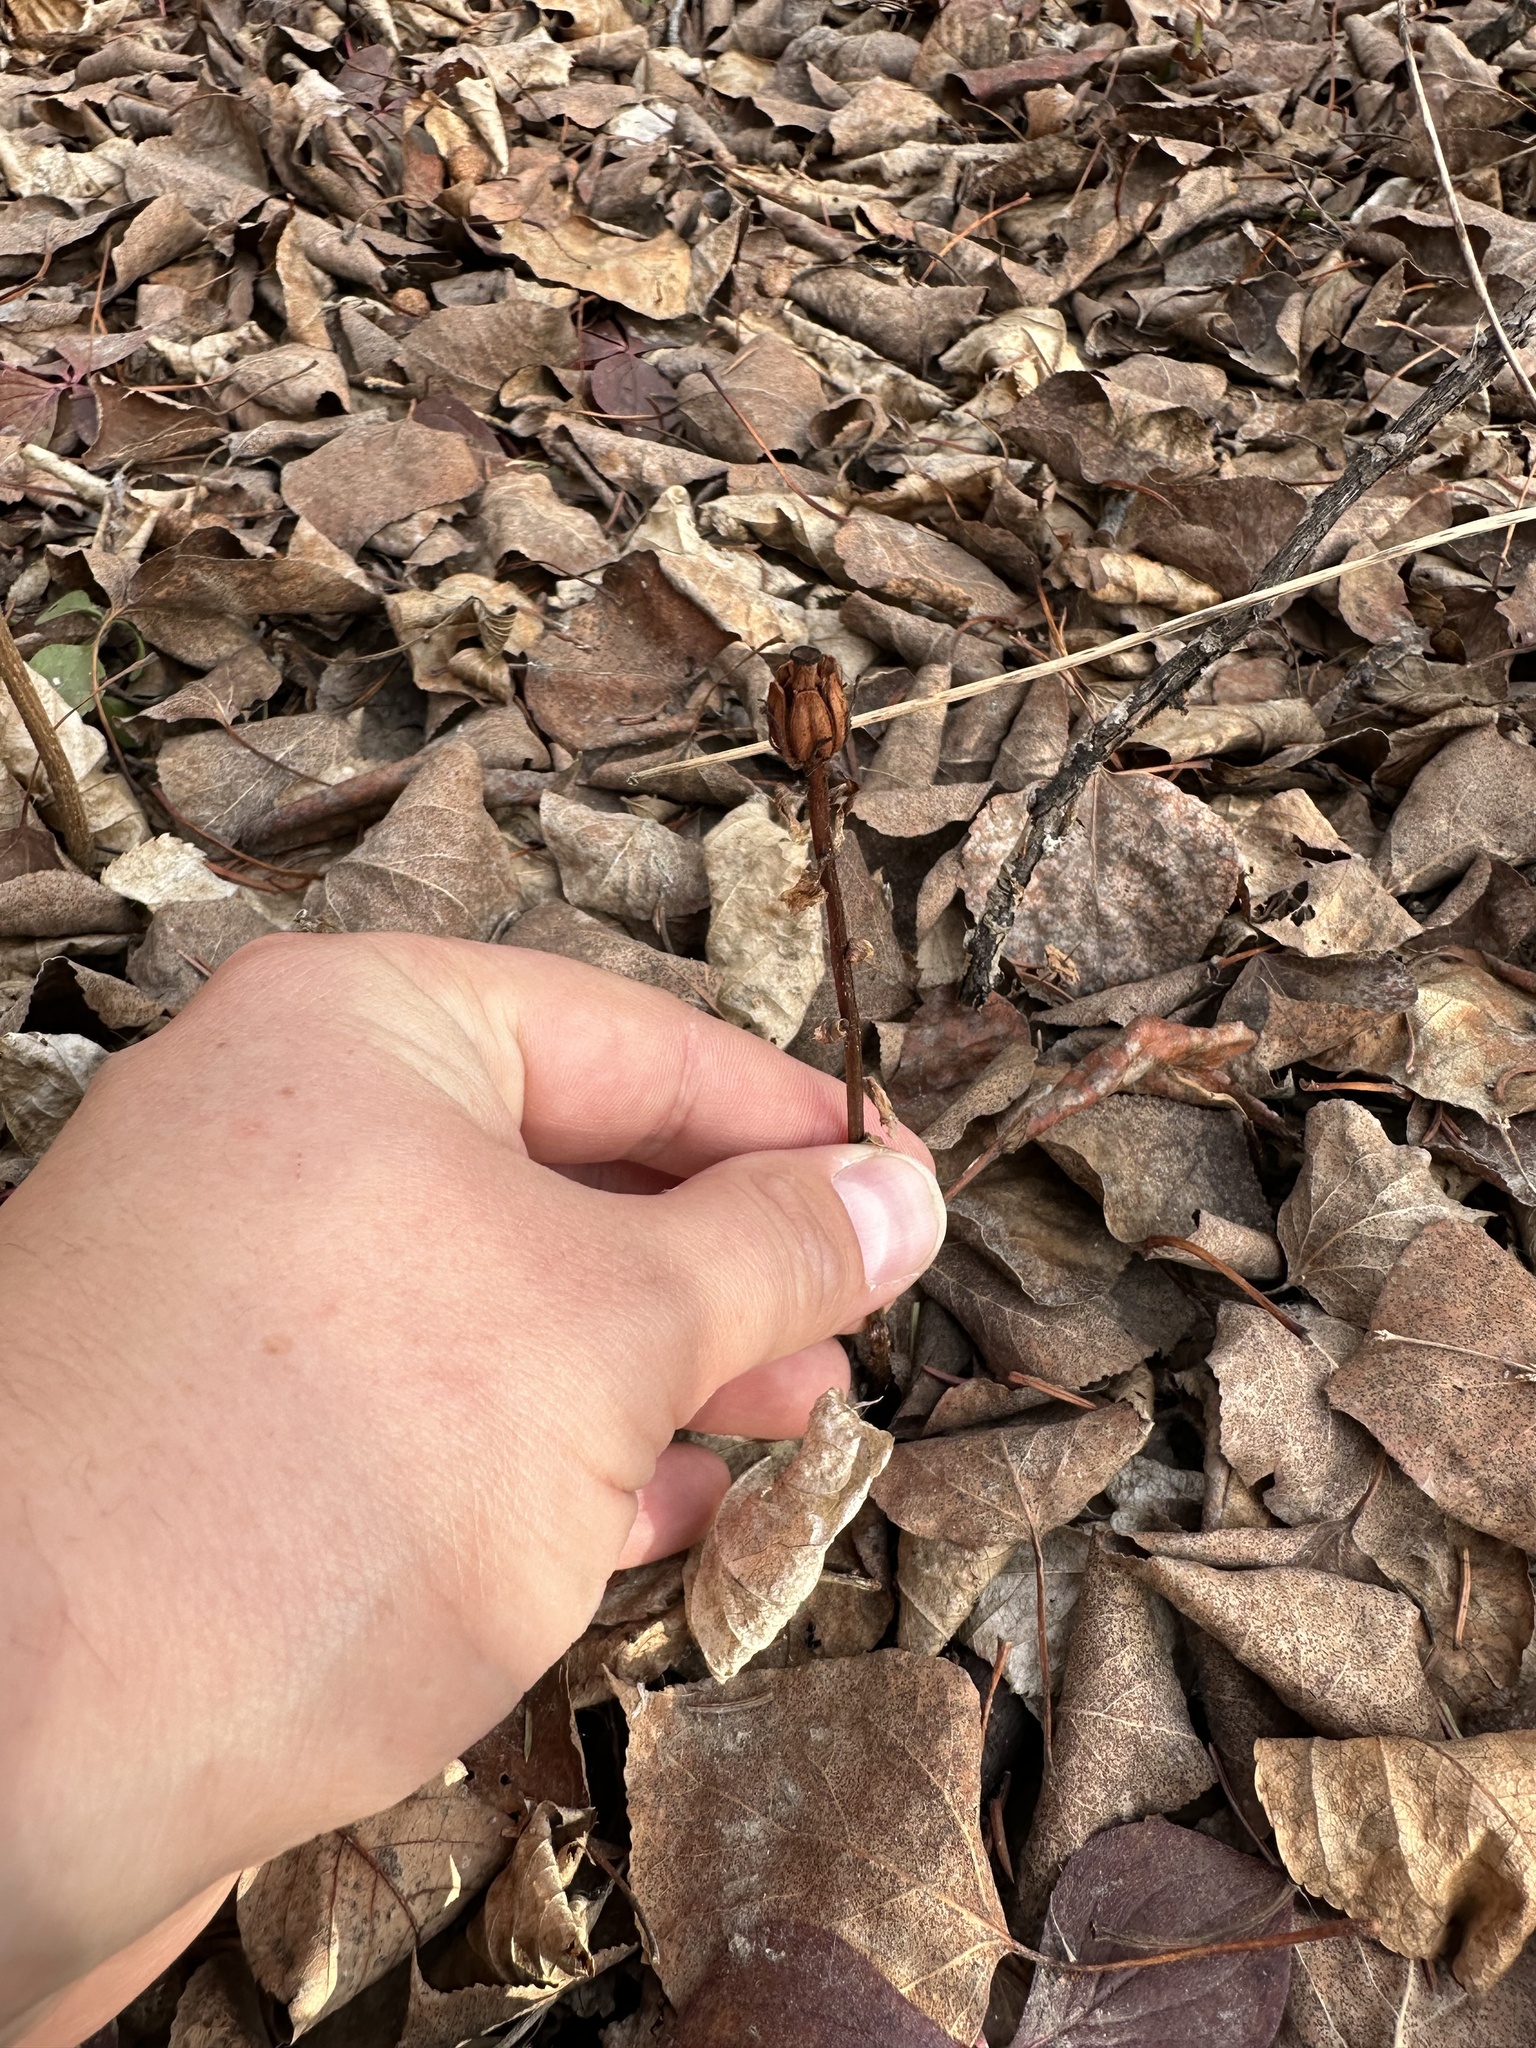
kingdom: Plantae
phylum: Tracheophyta
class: Magnoliopsida
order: Ericales
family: Ericaceae
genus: Monotropa
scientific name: Monotropa uniflora
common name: Convulsion root
